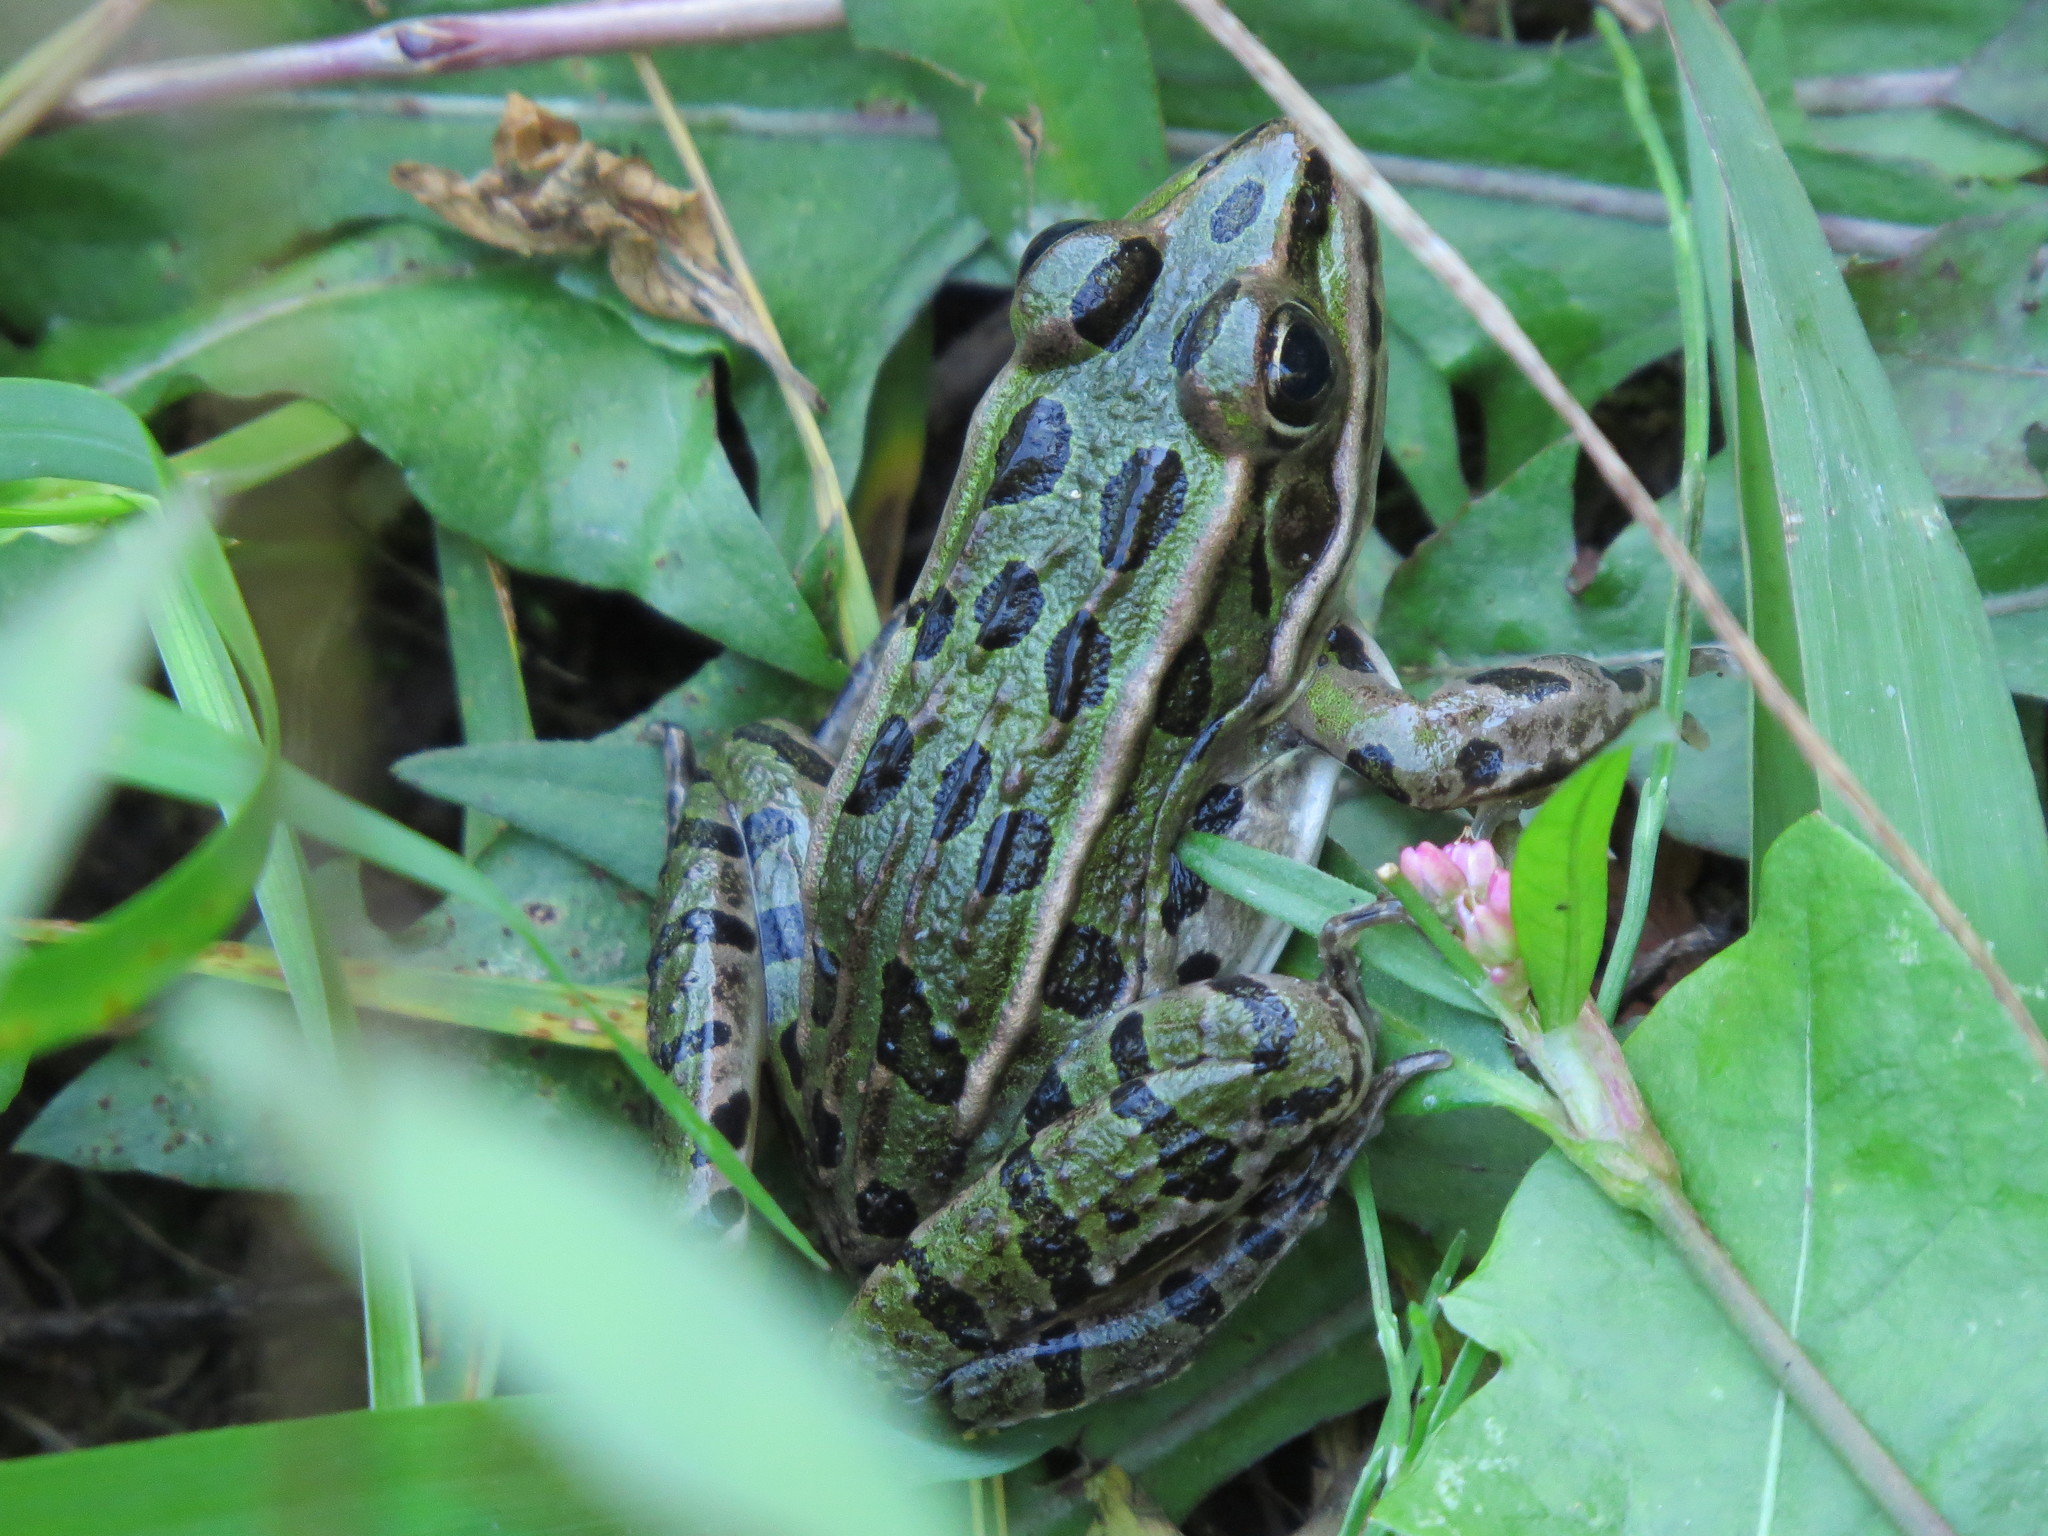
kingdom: Animalia
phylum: Chordata
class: Amphibia
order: Anura
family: Ranidae
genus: Lithobates
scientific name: Lithobates pipiens
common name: Northern leopard frog
